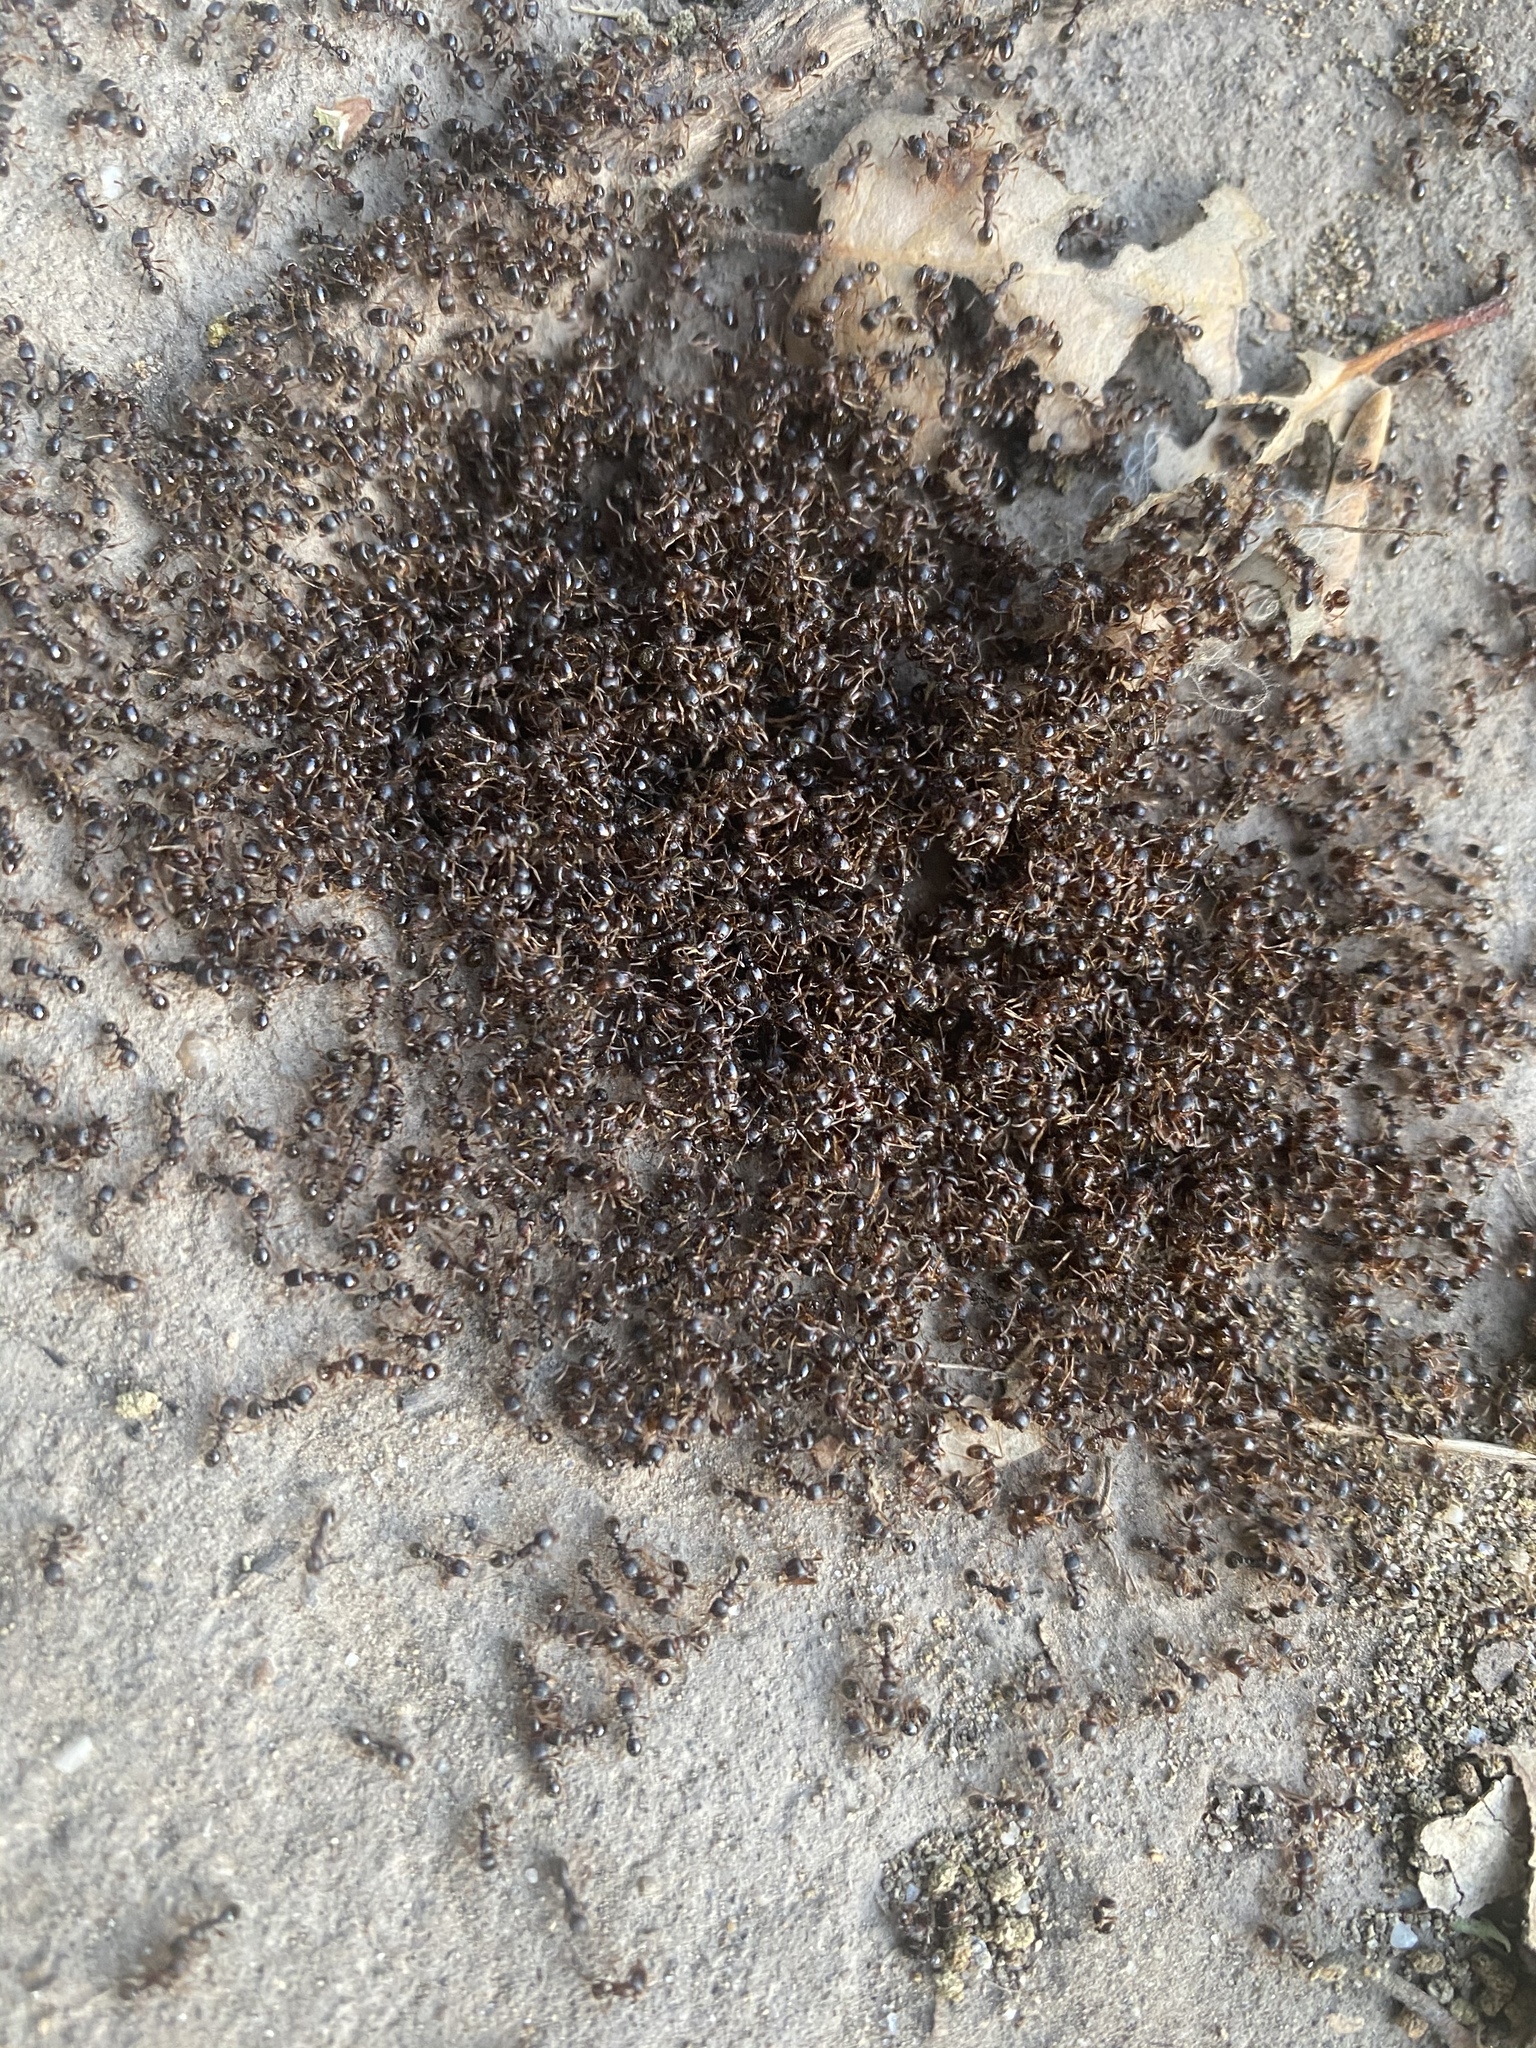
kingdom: Animalia
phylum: Arthropoda
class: Insecta
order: Hymenoptera
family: Formicidae
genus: Tetramorium
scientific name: Tetramorium immigrans
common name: Pavement ant
